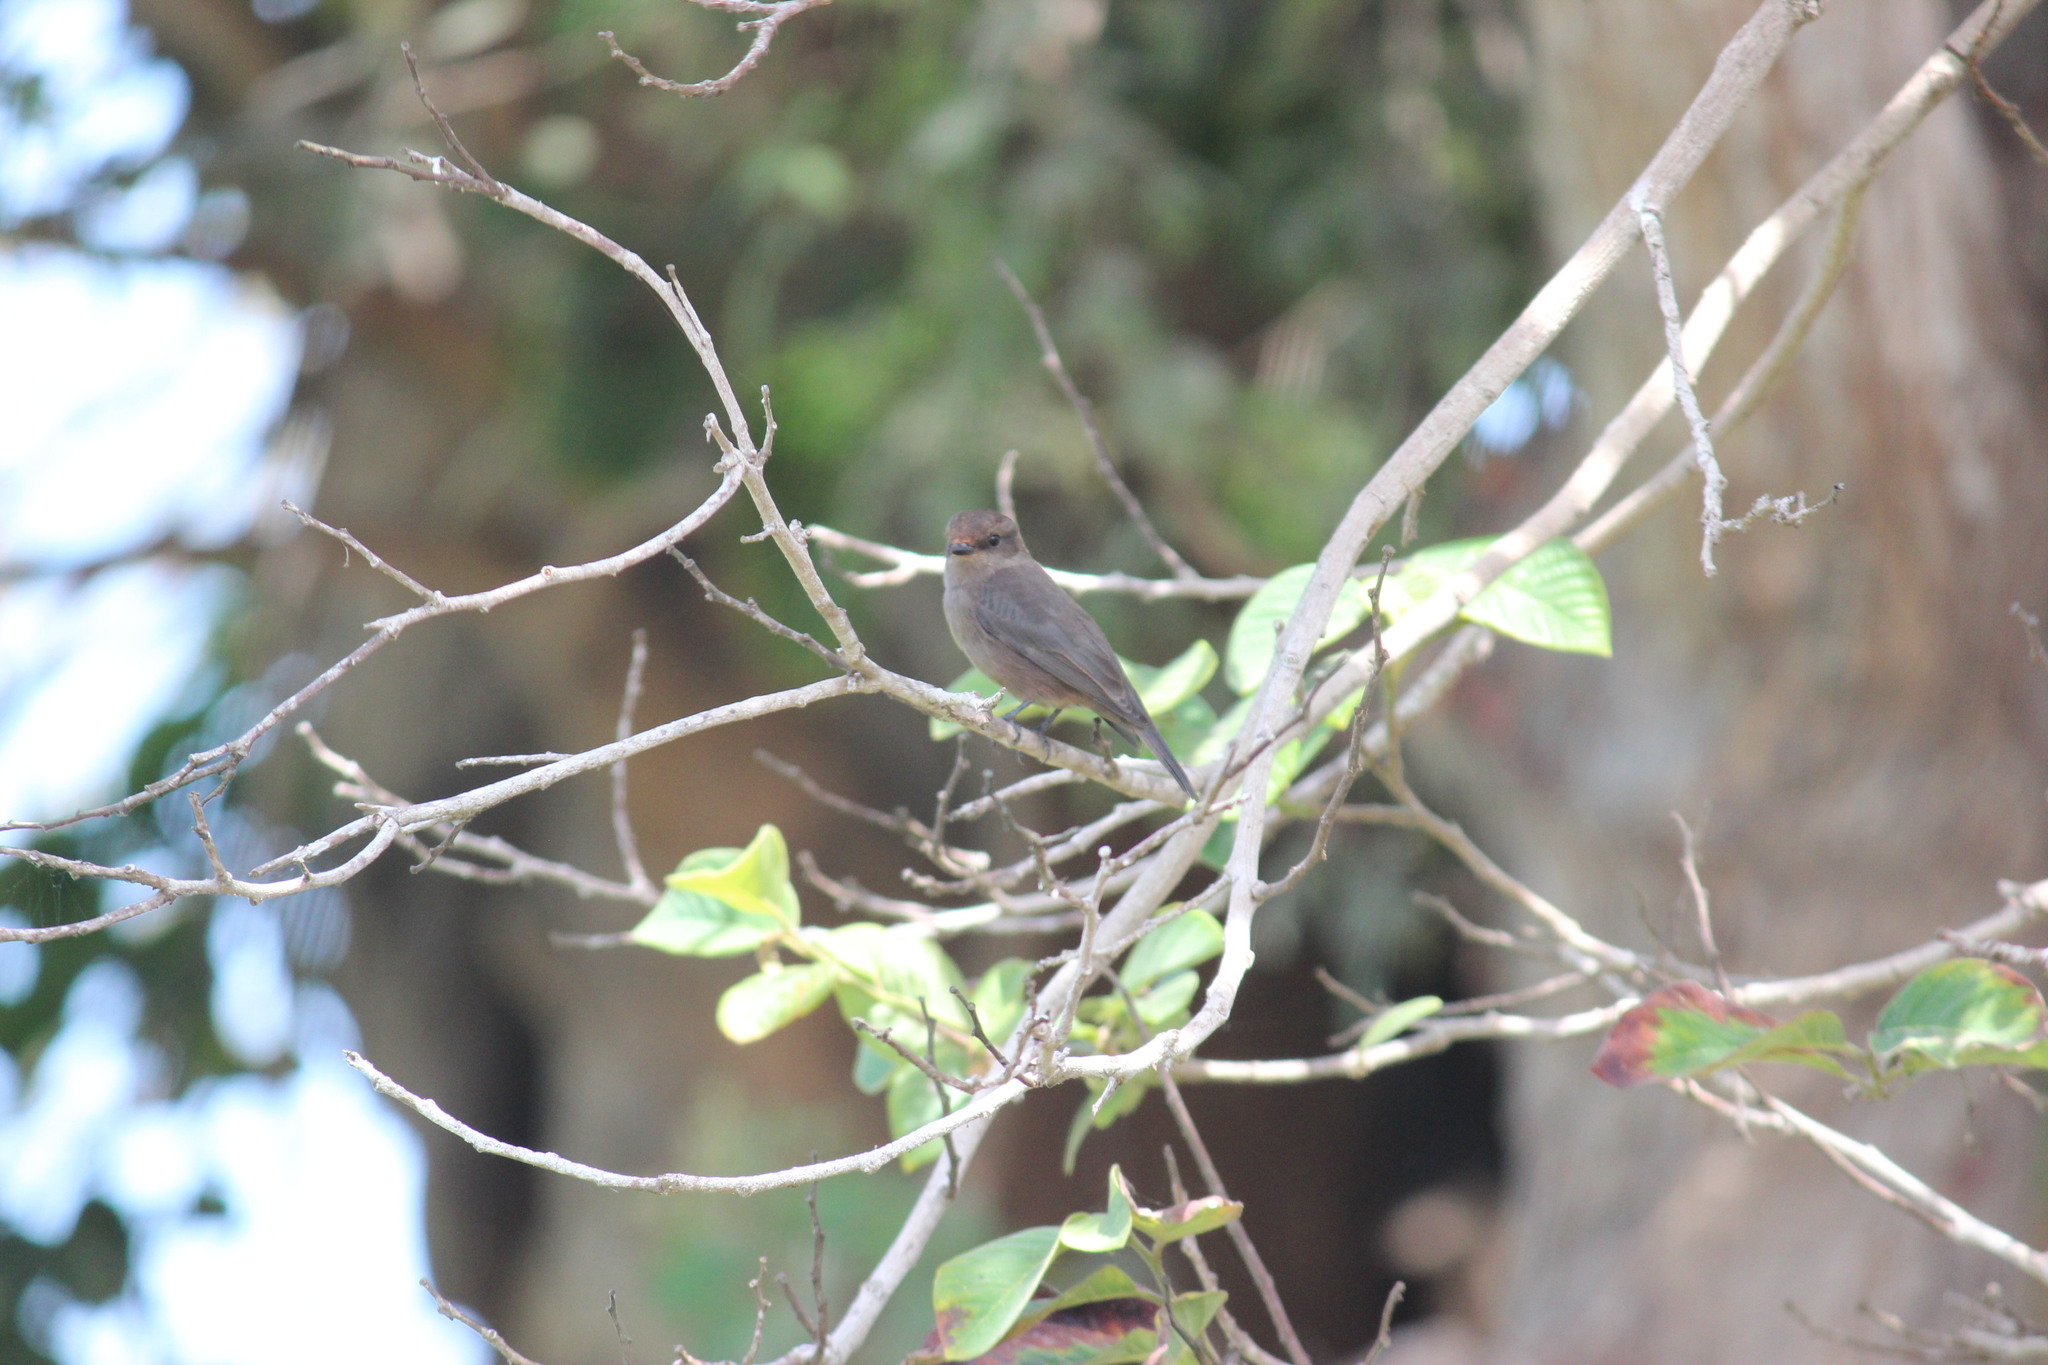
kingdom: Animalia
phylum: Chordata
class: Aves
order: Passeriformes
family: Tyrannidae
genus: Pyrocephalus
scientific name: Pyrocephalus rubinus
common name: Vermilion flycatcher
